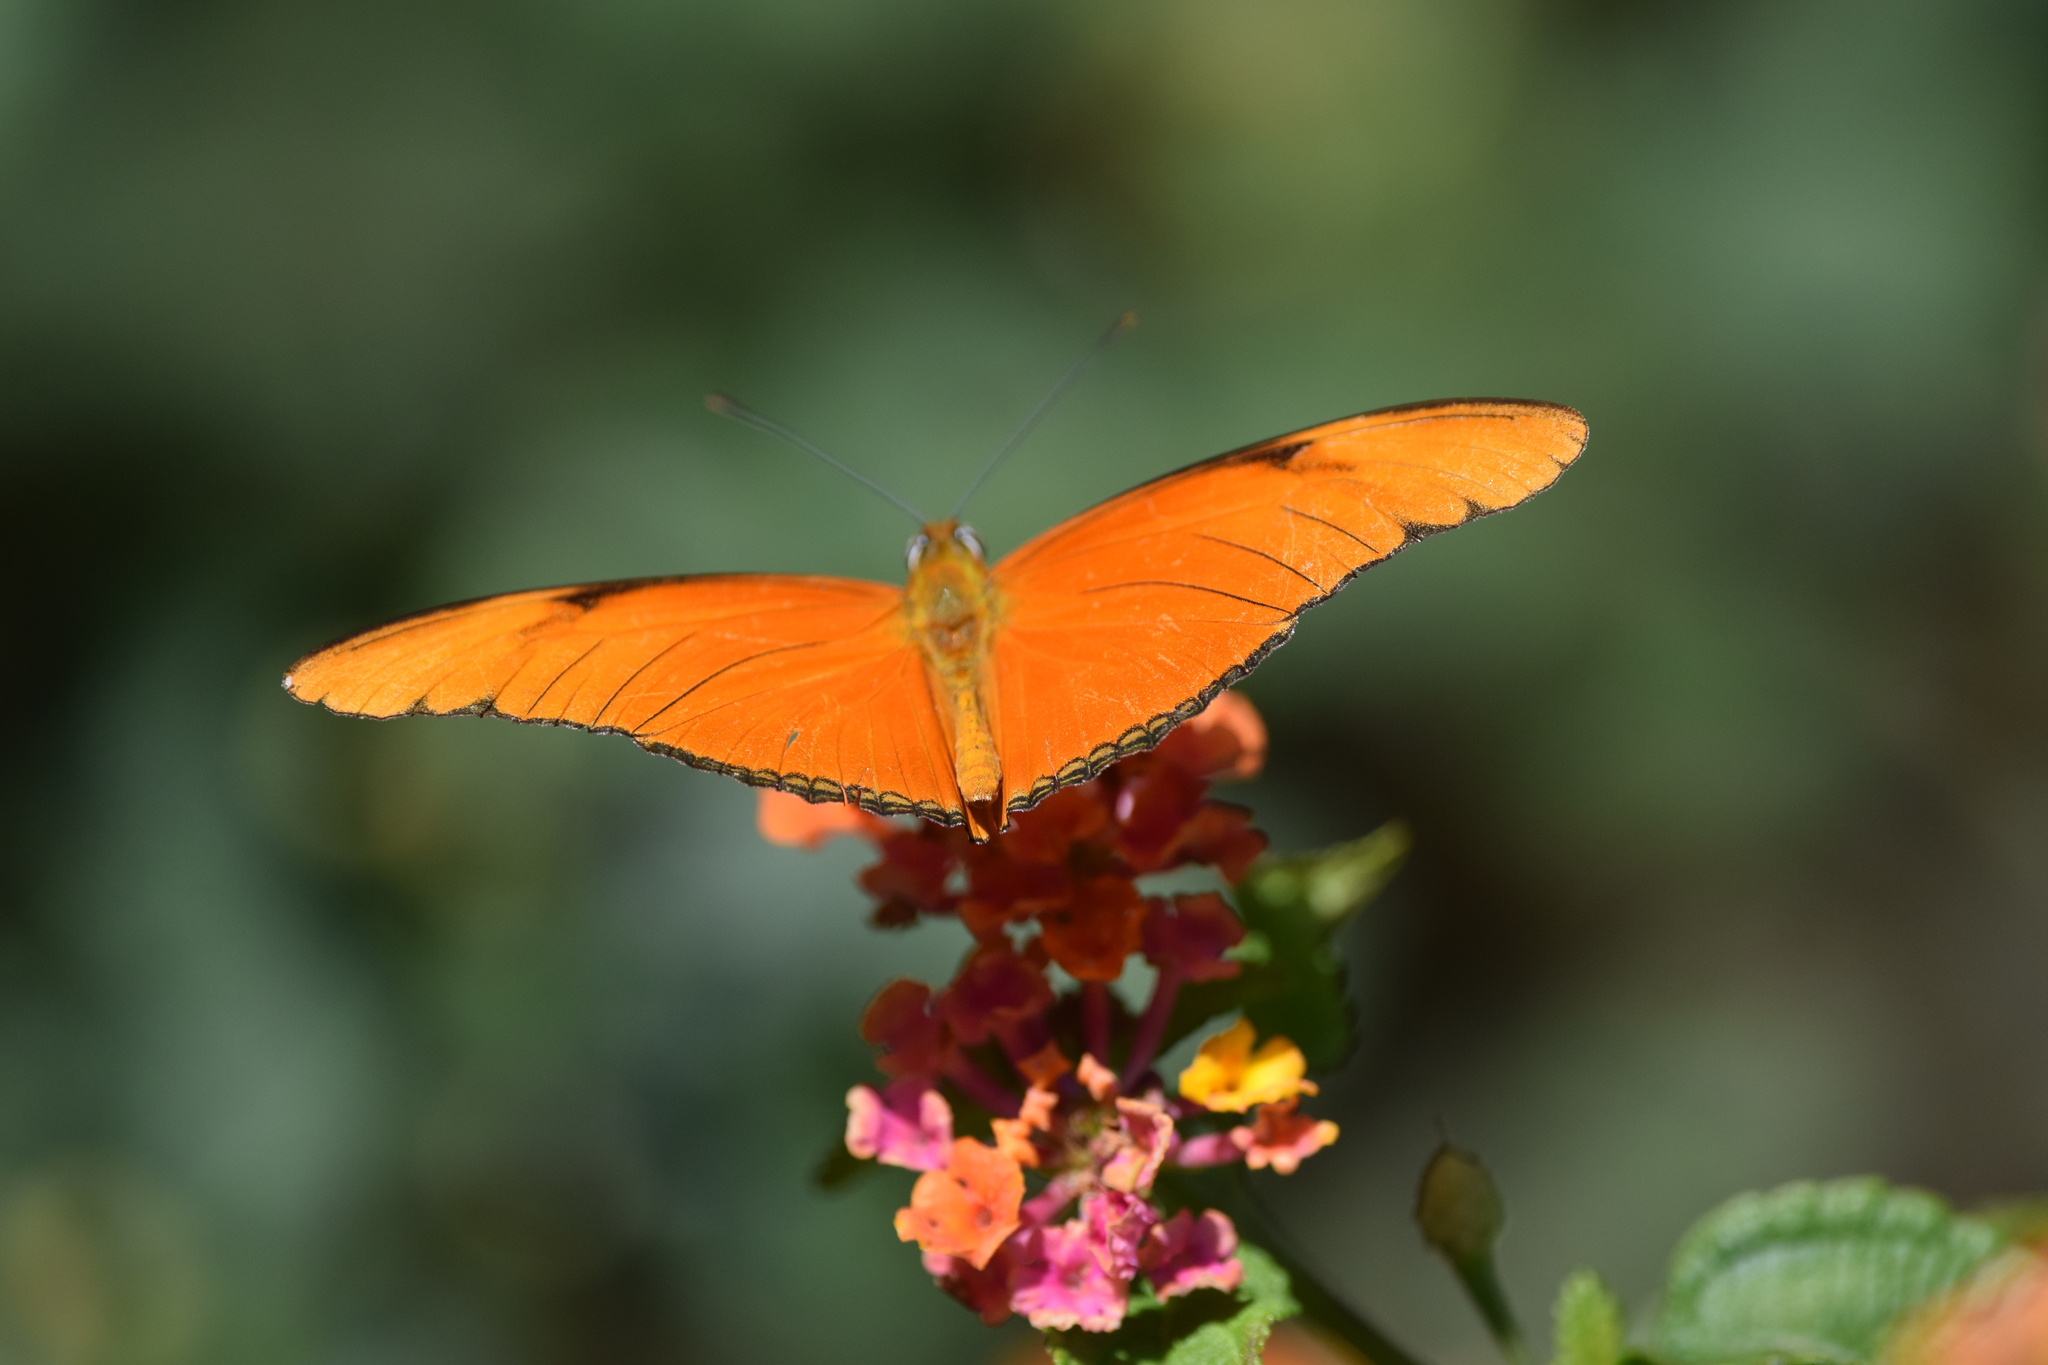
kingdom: Animalia
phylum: Arthropoda
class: Insecta
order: Lepidoptera
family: Nymphalidae
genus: Dryas
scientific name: Dryas iulia
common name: Flambeau
